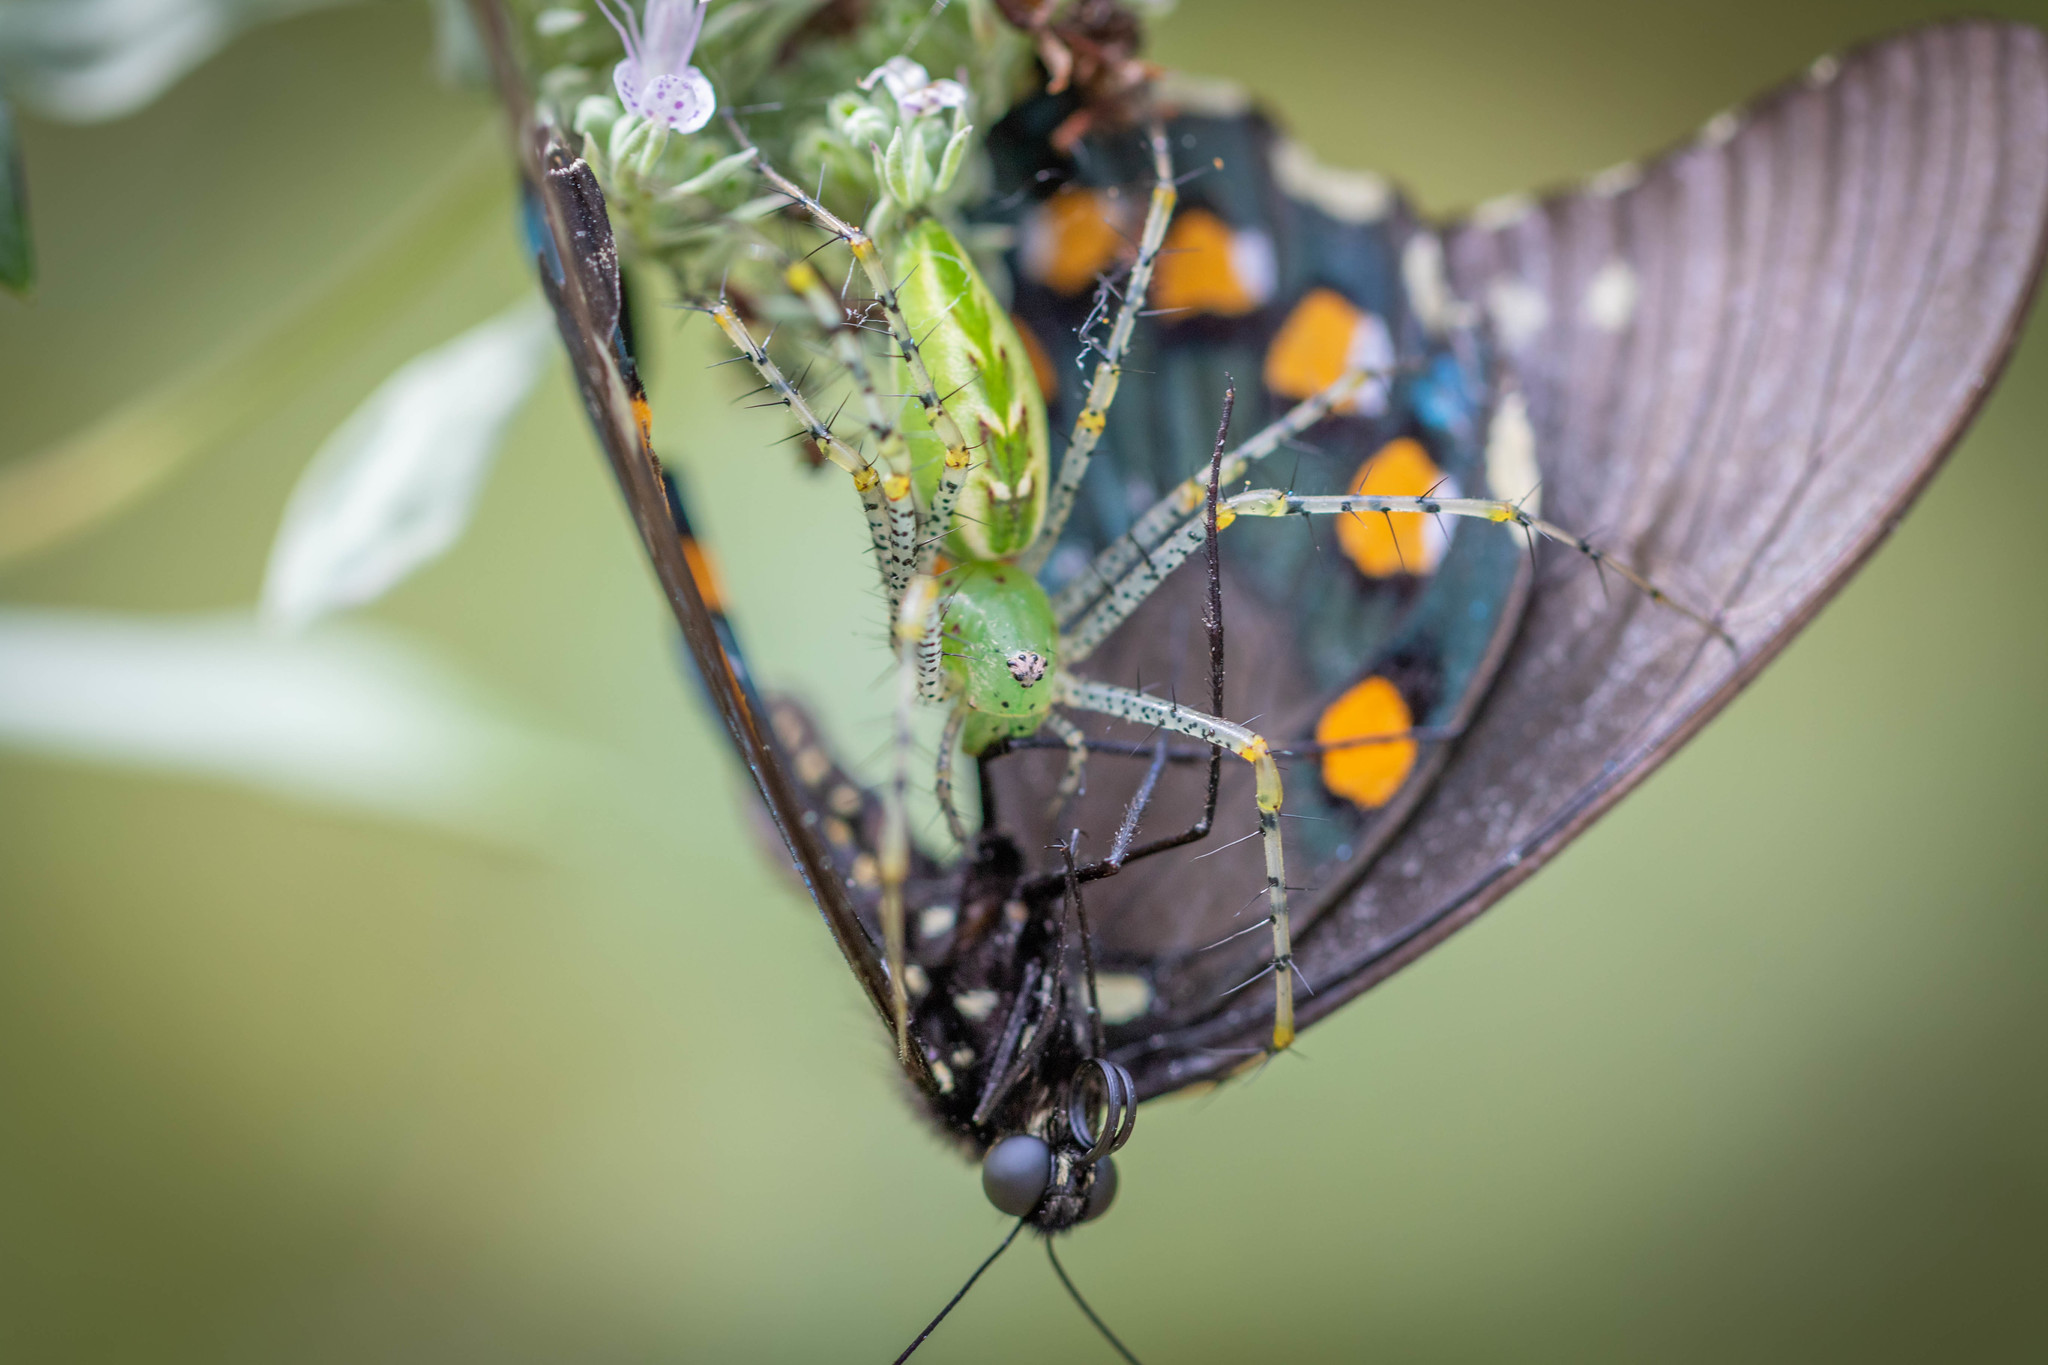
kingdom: Animalia
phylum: Arthropoda
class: Insecta
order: Lepidoptera
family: Papilionidae
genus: Battus
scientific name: Battus philenor
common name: Pipevine swallowtail
